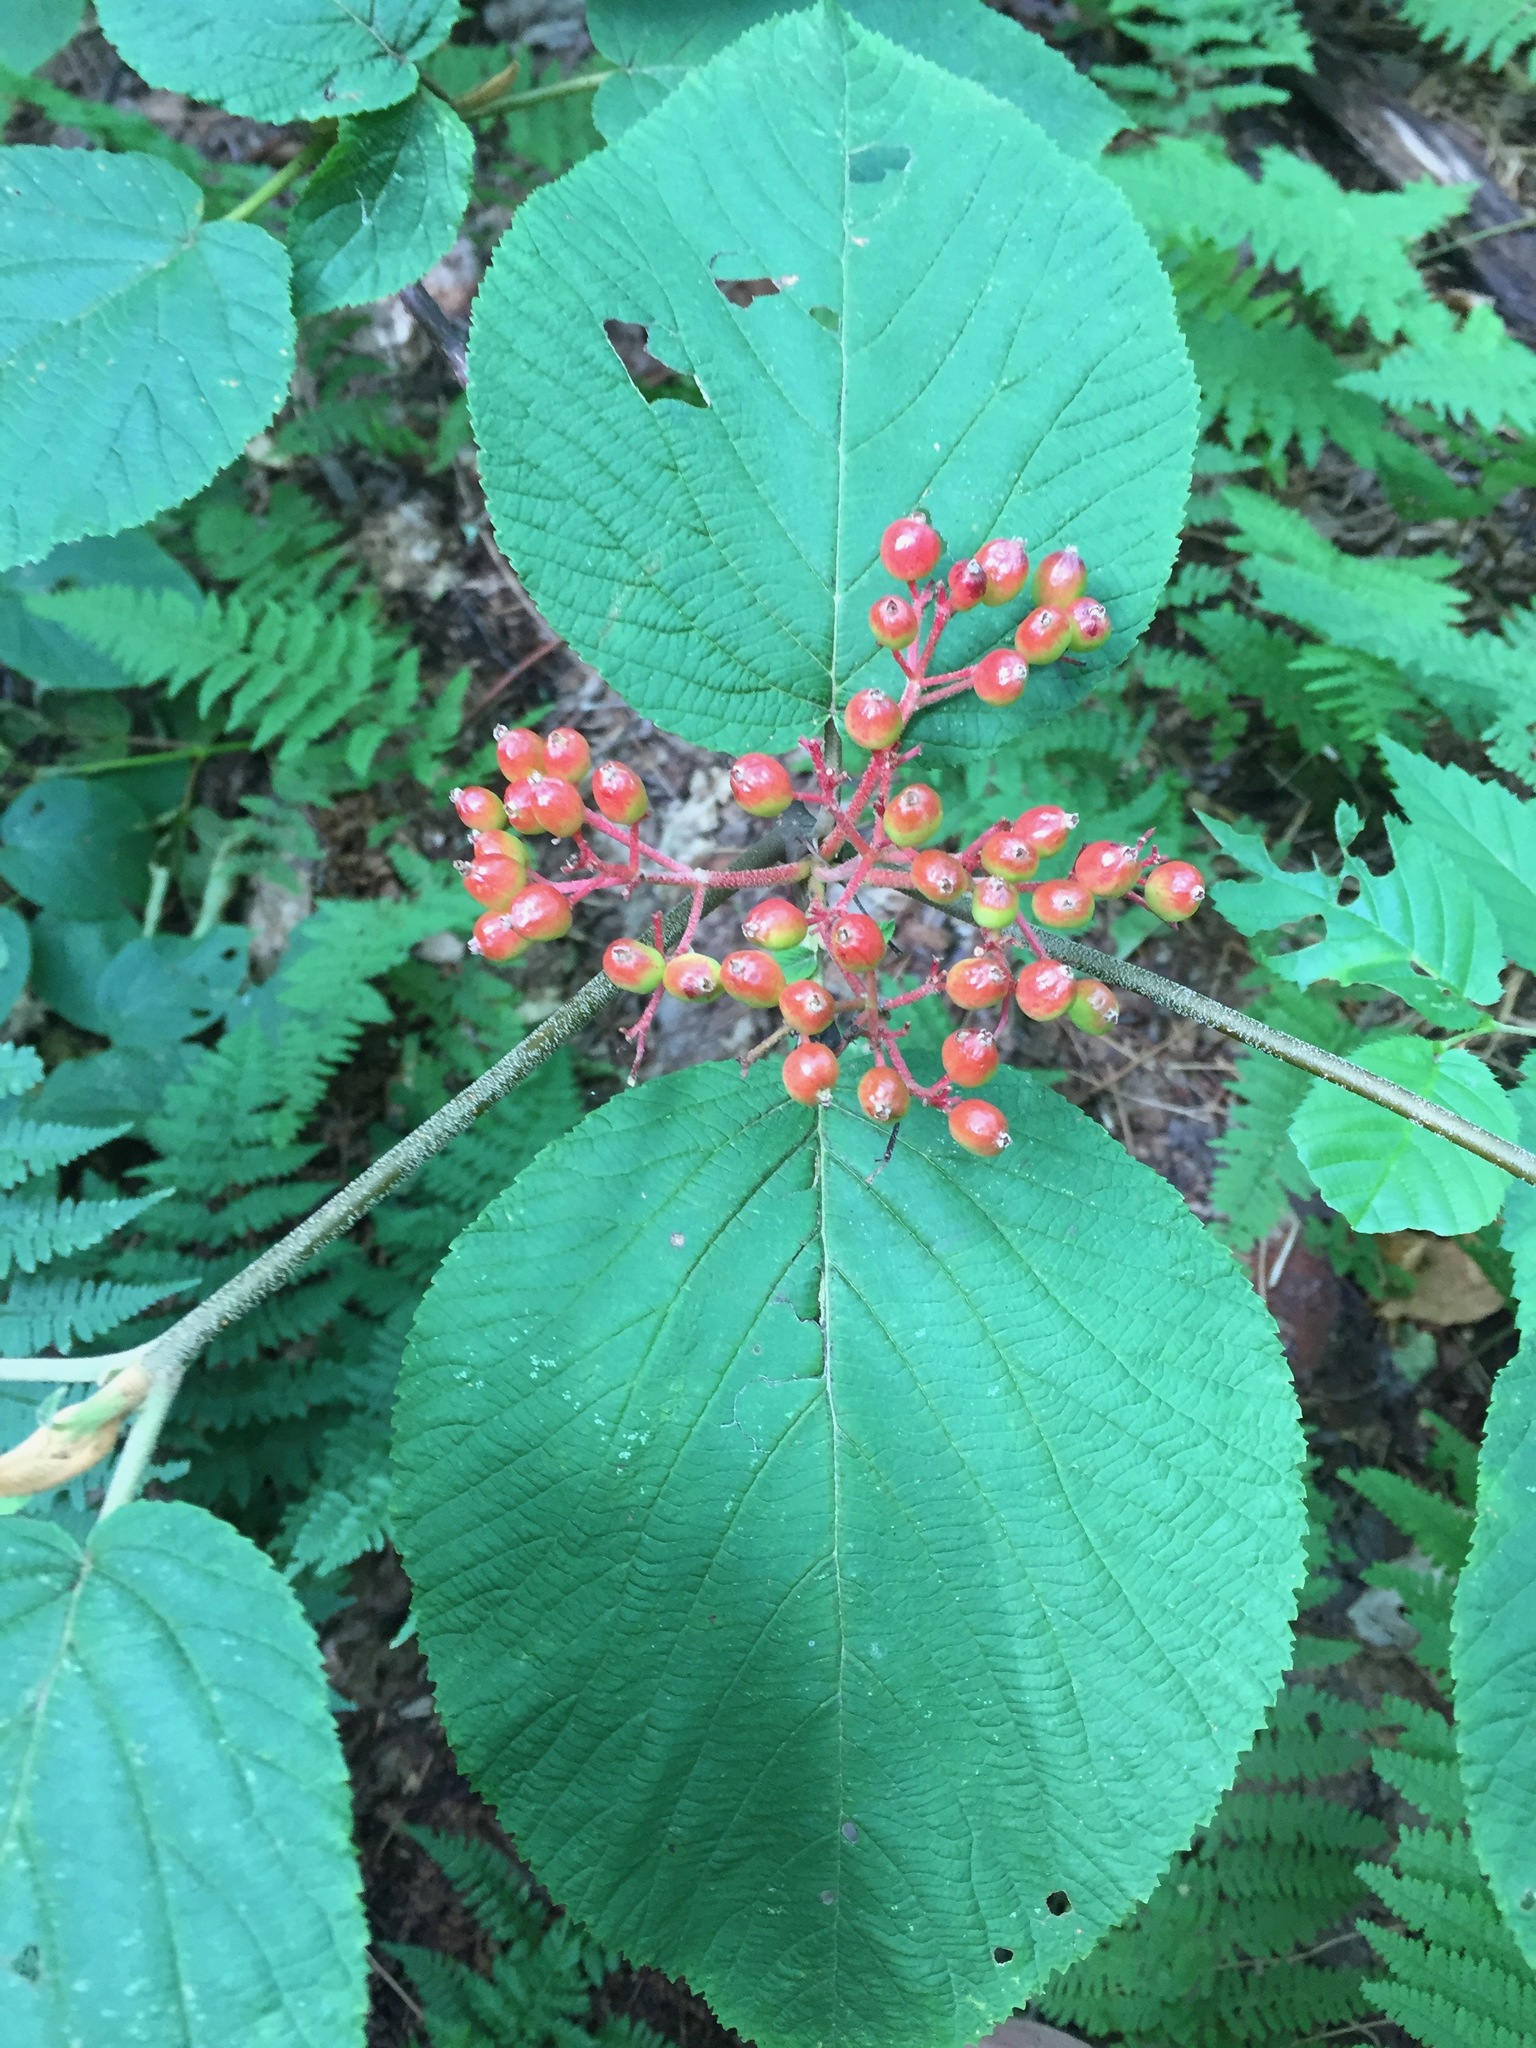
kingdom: Plantae
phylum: Tracheophyta
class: Magnoliopsida
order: Dipsacales
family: Viburnaceae
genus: Viburnum
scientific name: Viburnum lantanoides
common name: Hobblebush
